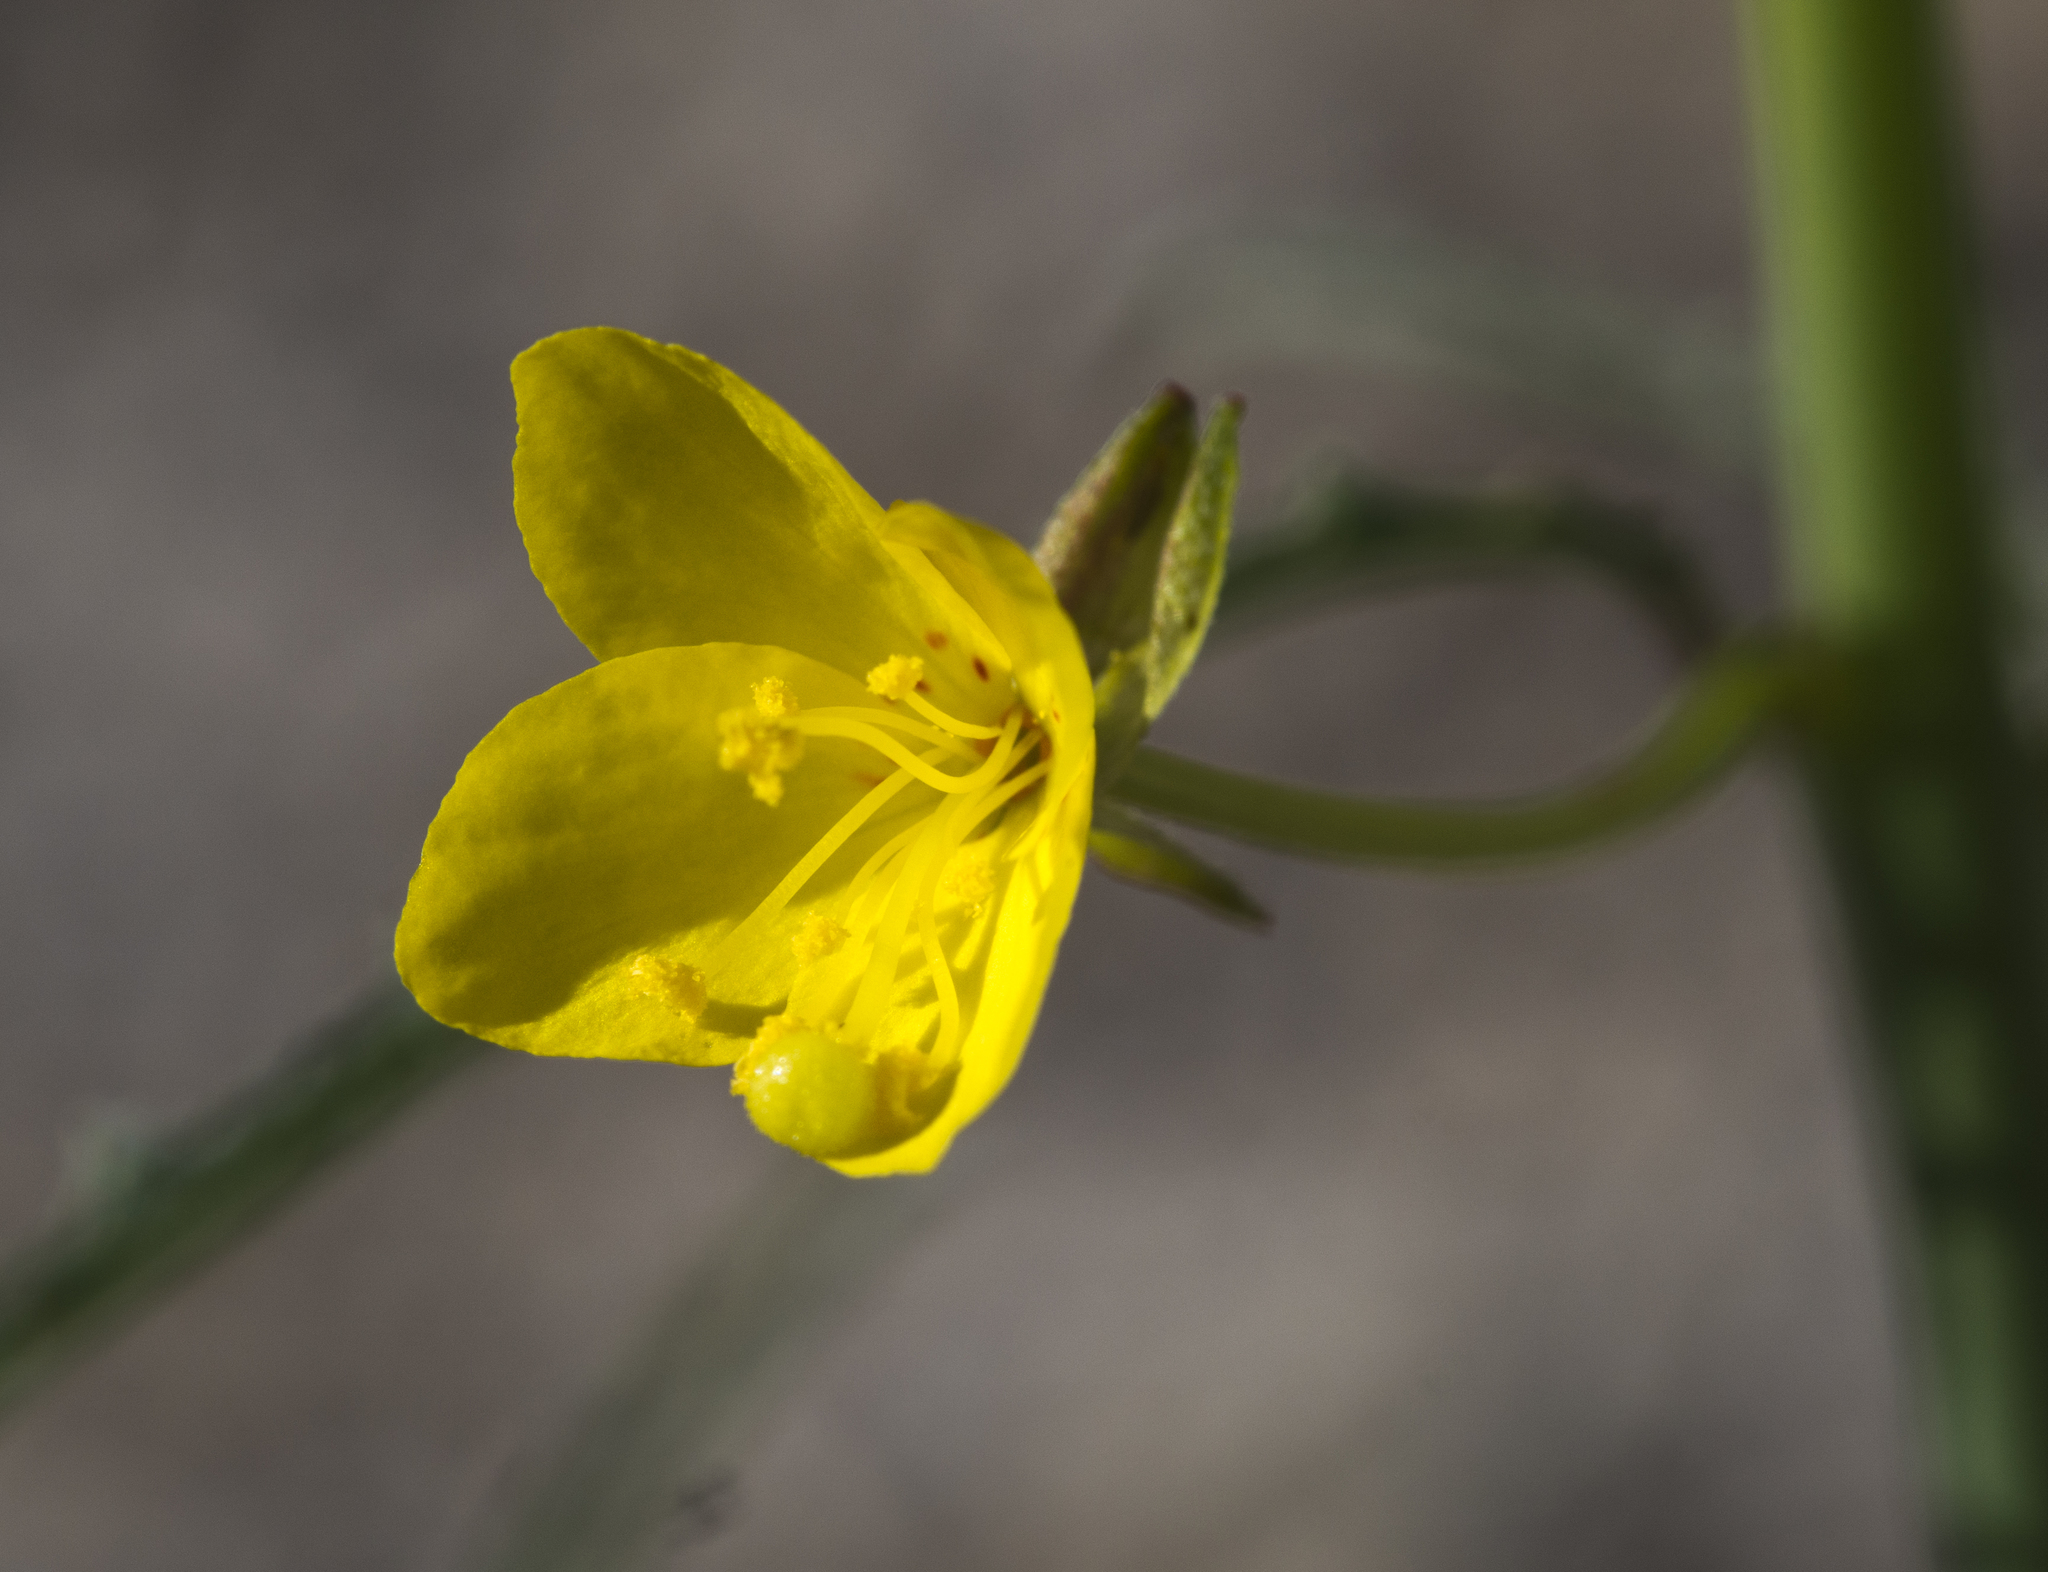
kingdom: Plantae
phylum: Tracheophyta
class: Magnoliopsida
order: Myrtales
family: Onagraceae
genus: Eulobus
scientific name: Eulobus californicus
